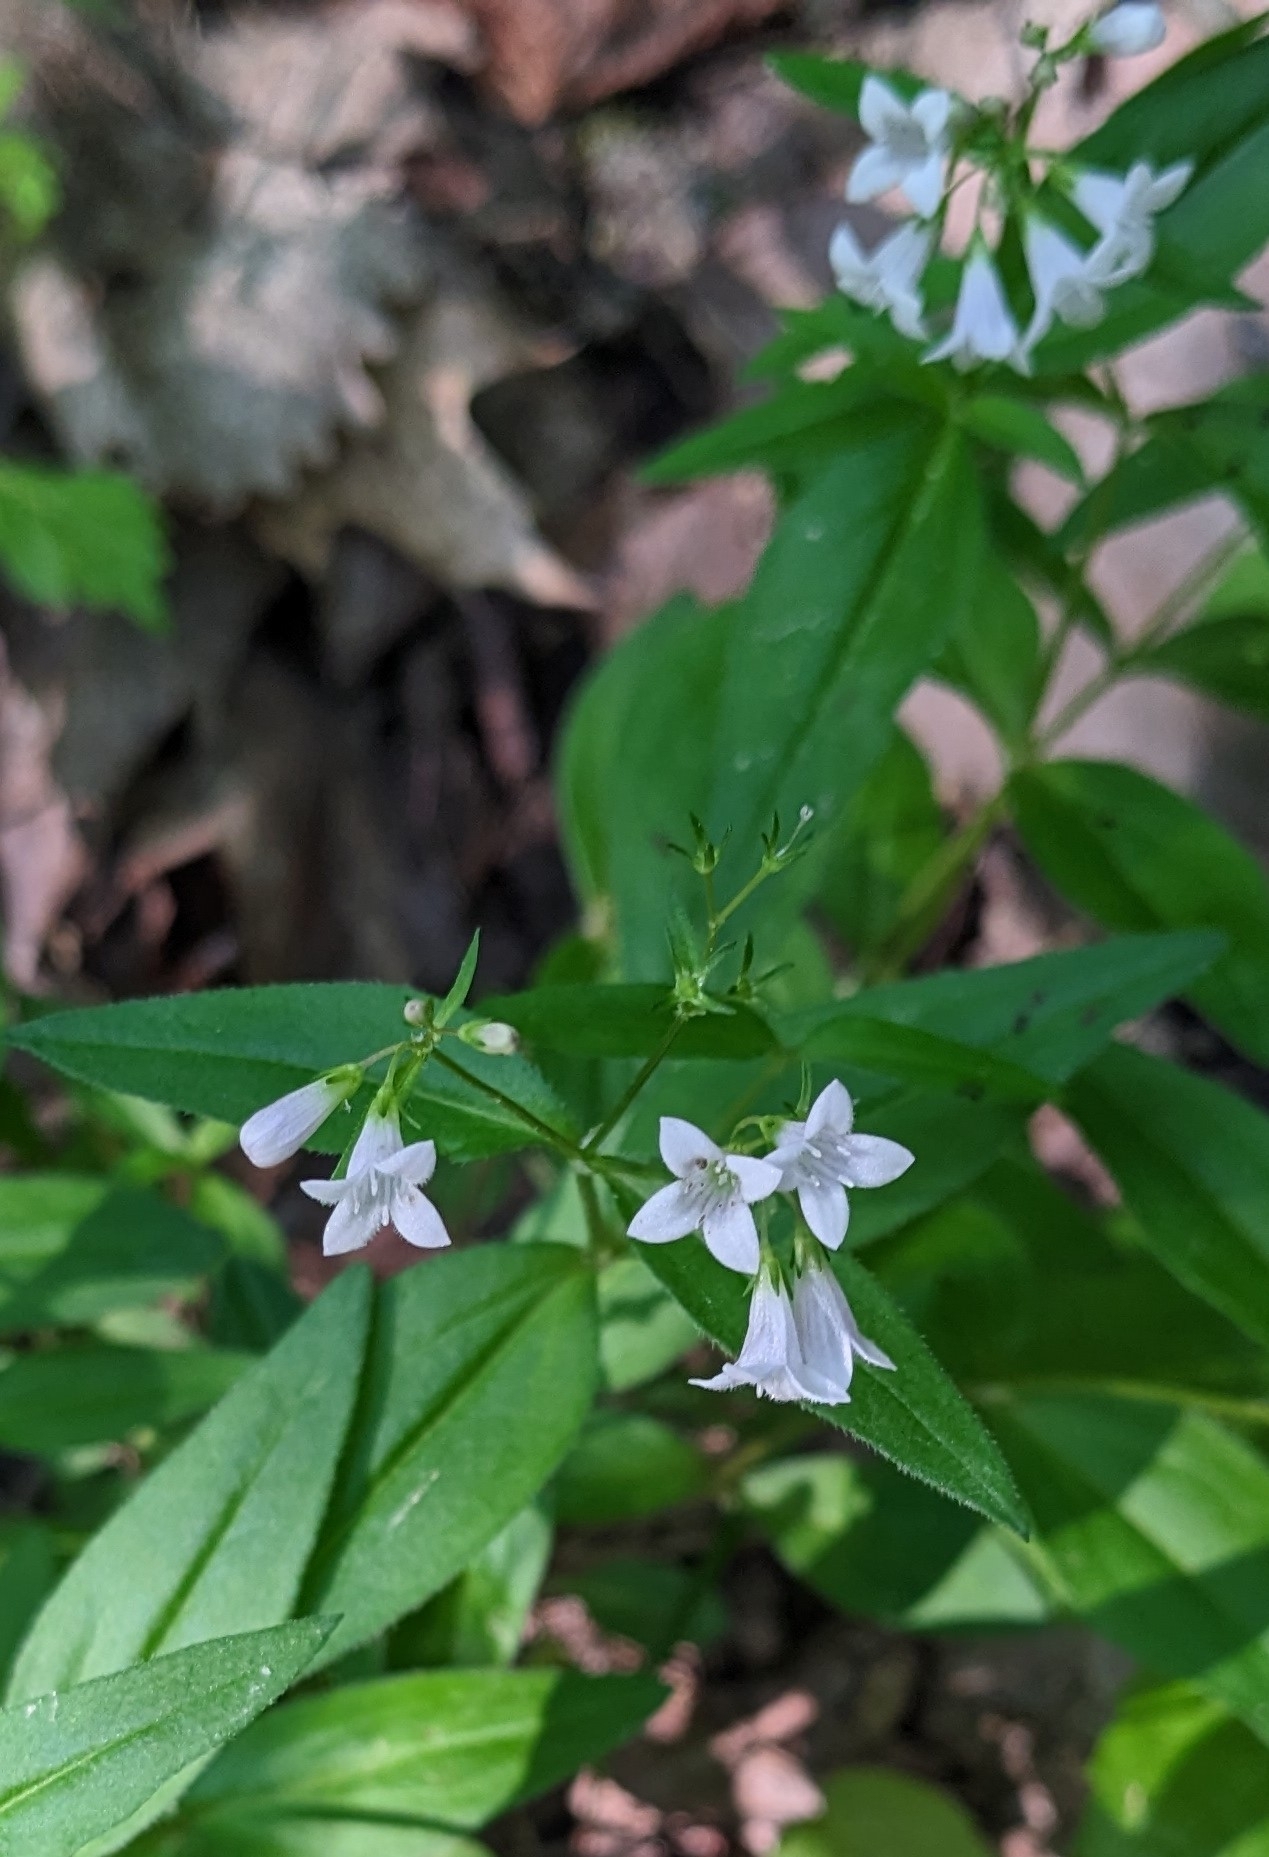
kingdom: Plantae
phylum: Tracheophyta
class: Magnoliopsida
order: Gentianales
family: Rubiaceae
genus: Houstonia
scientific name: Houstonia purpurea
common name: Summer bluet
